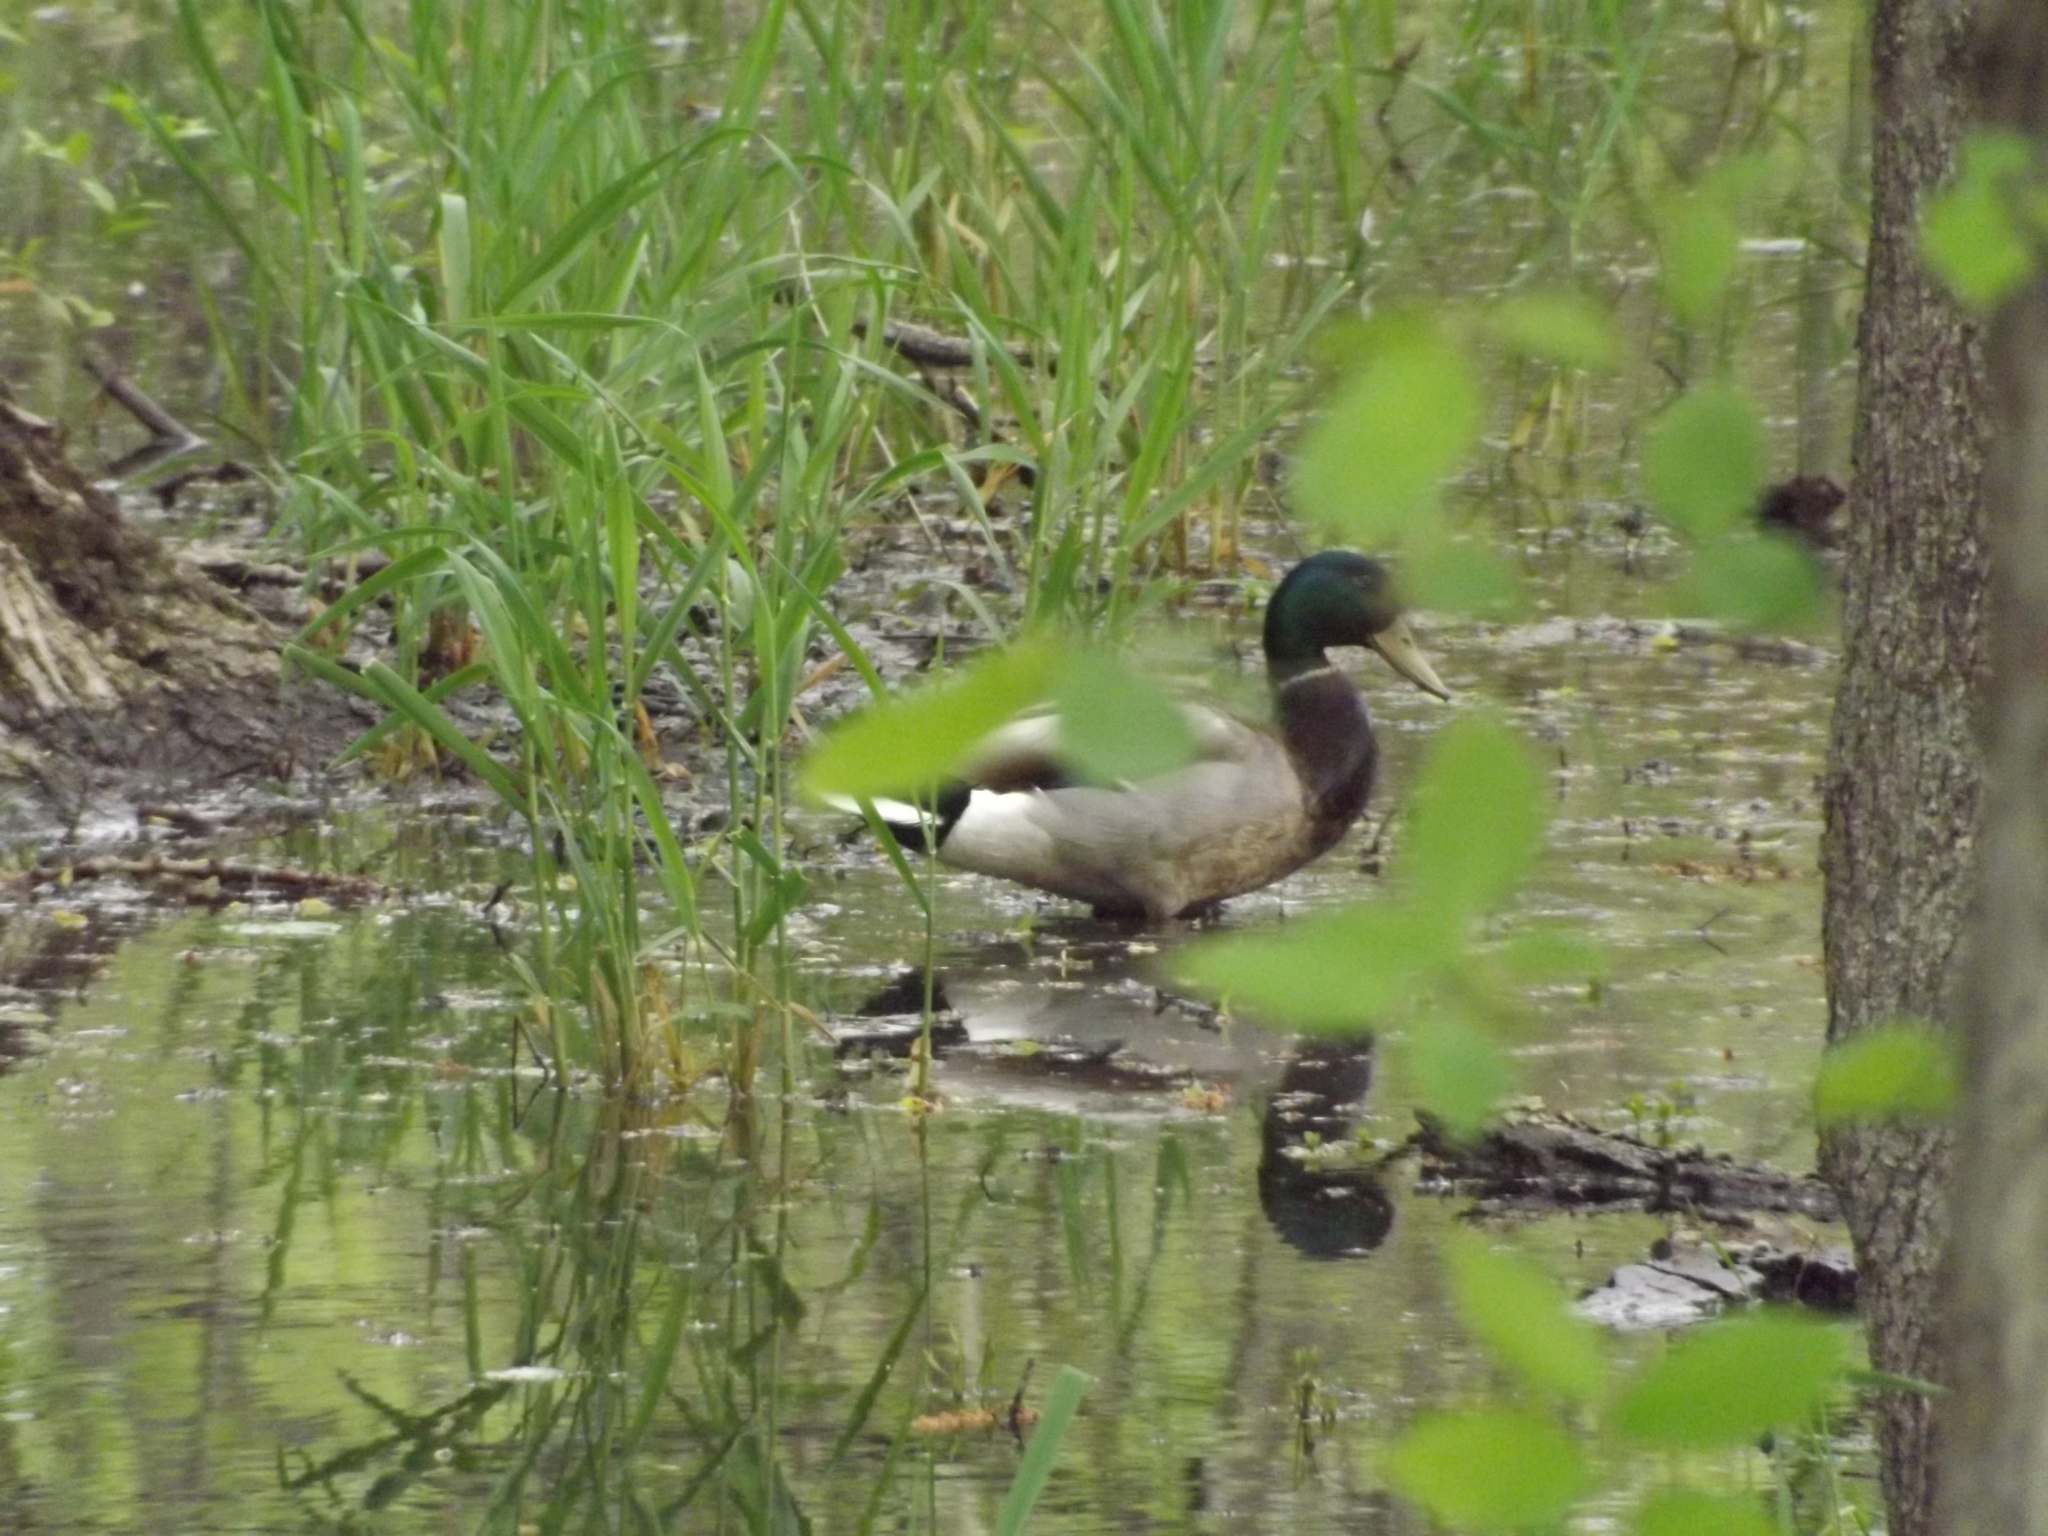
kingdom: Animalia
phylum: Chordata
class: Aves
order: Anseriformes
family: Anatidae
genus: Anas
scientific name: Anas platyrhynchos
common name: Mallard
